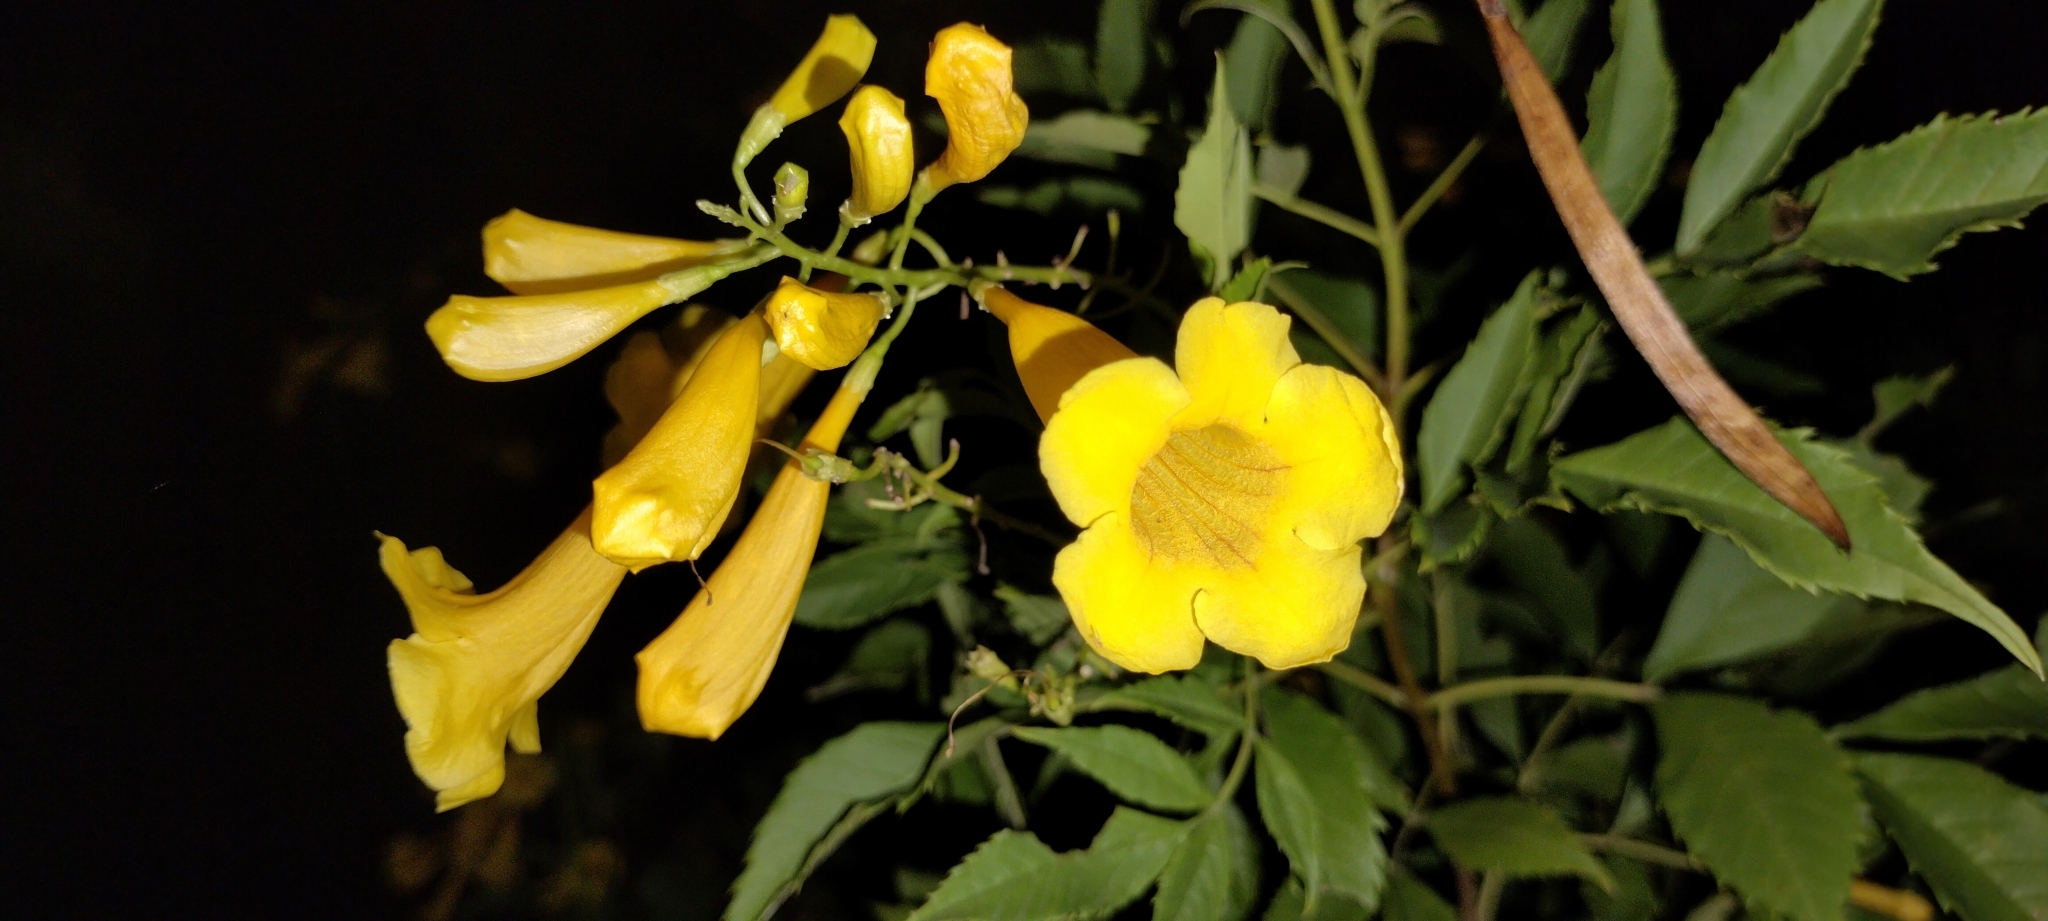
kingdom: Plantae
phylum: Tracheophyta
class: Magnoliopsida
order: Lamiales
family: Bignoniaceae
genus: Tecoma
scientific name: Tecoma stans
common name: Yellow trumpetbush
